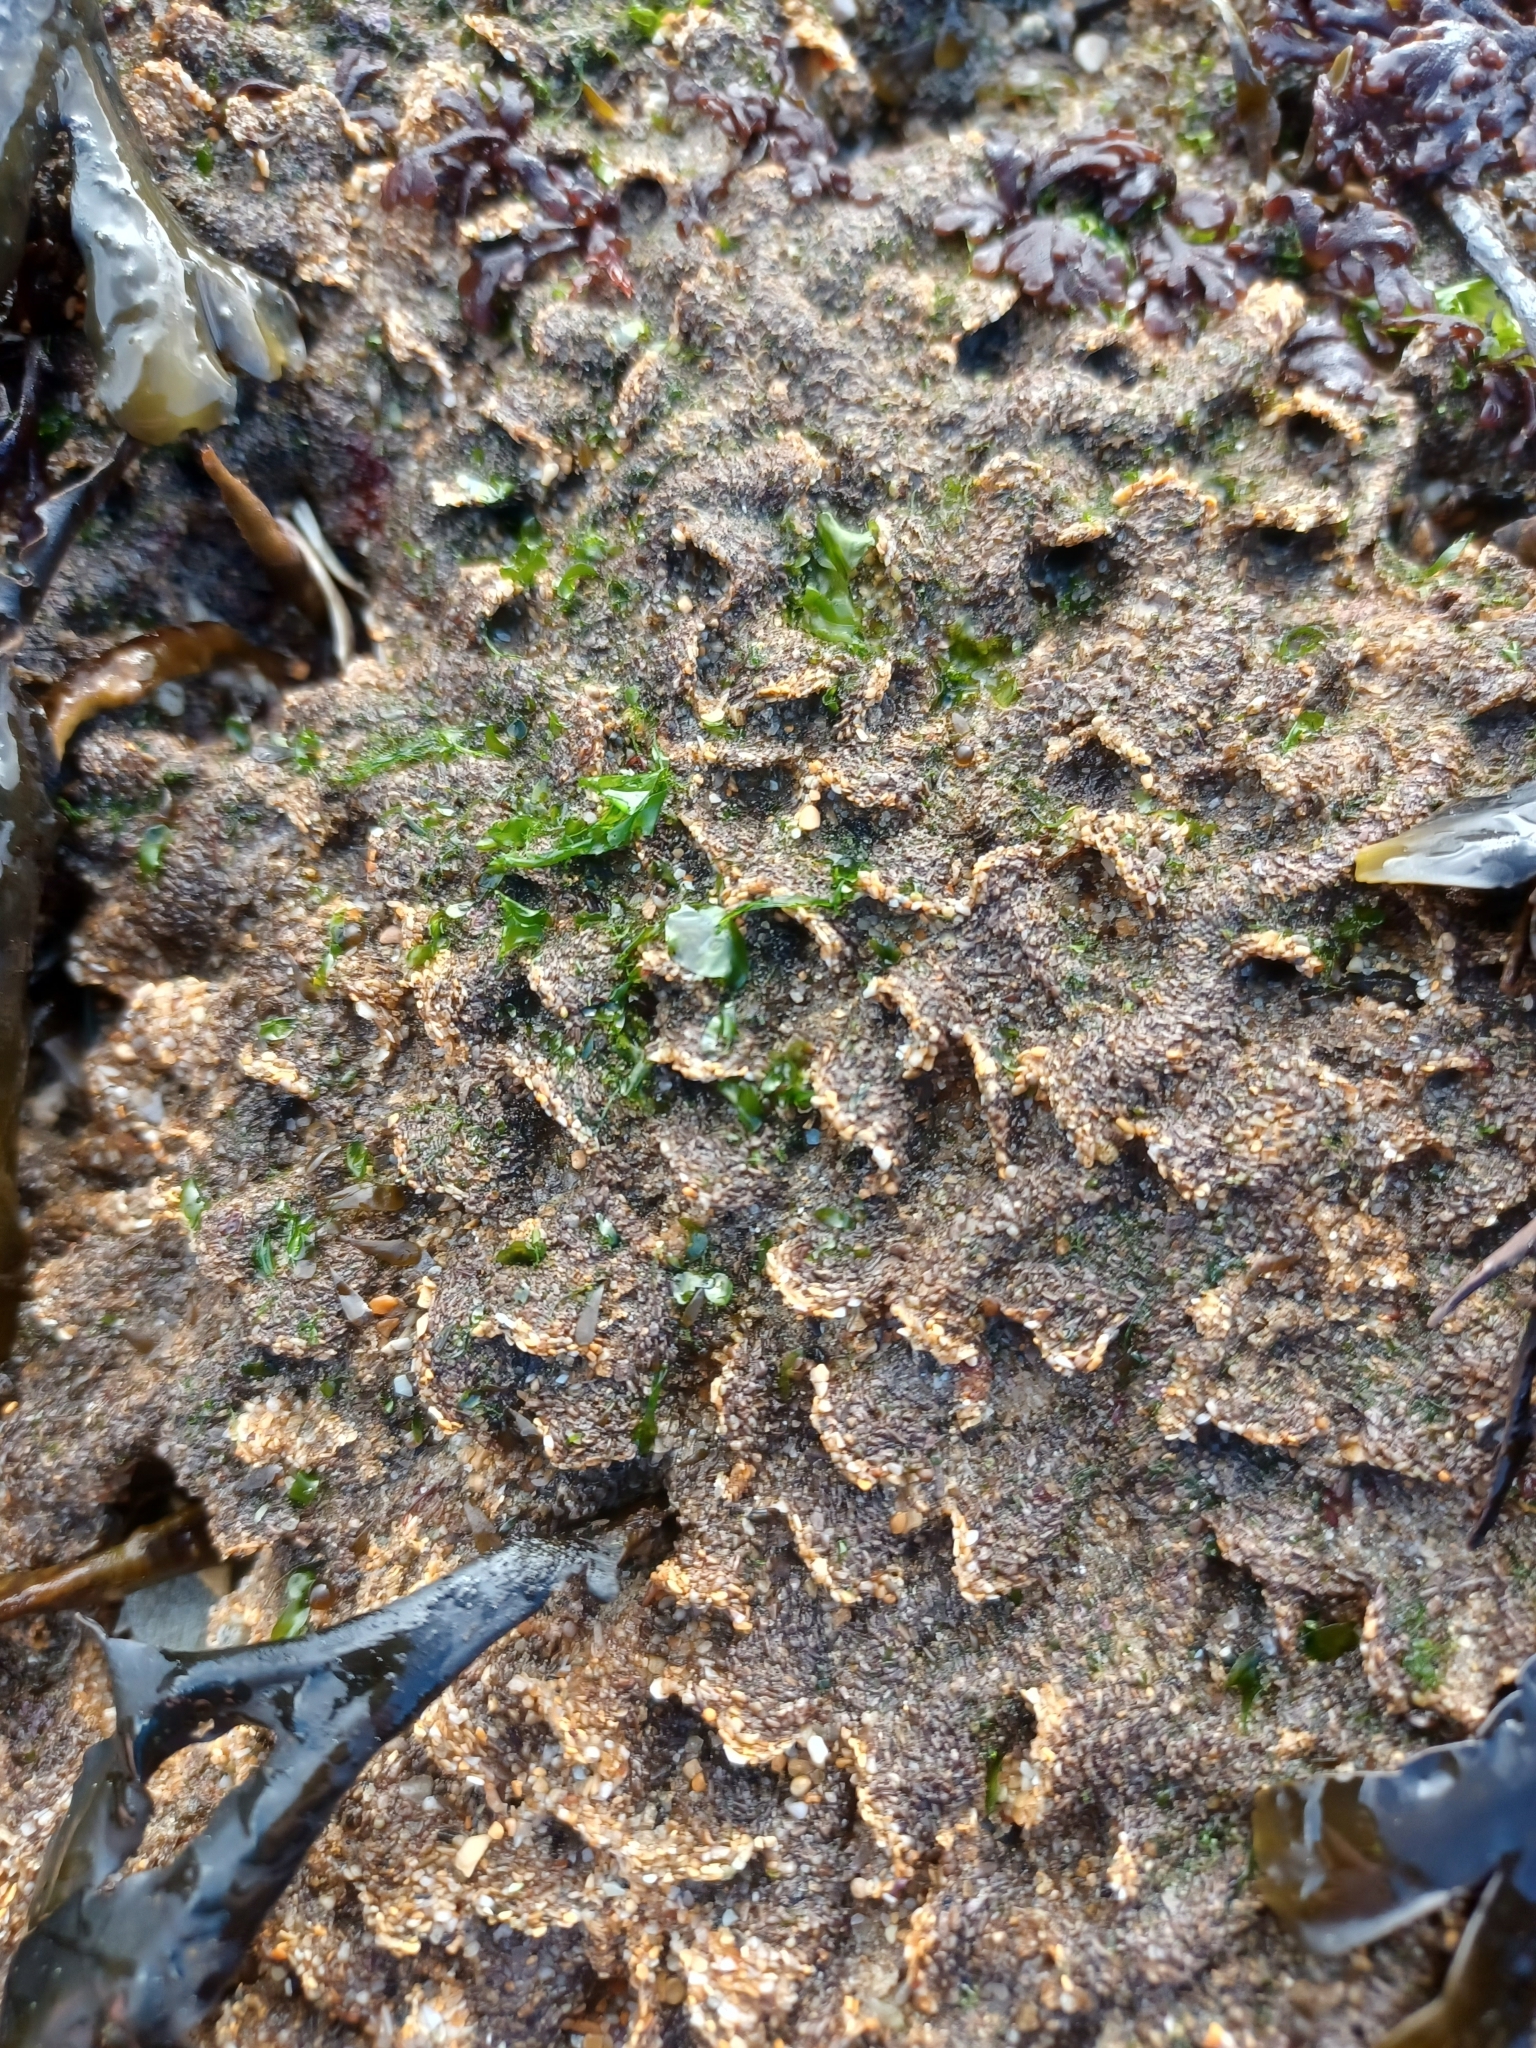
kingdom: Animalia
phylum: Annelida
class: Polychaeta
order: Sabellida
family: Sabellariidae
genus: Sabellaria
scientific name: Sabellaria alveolata
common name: Honeycomb worm
